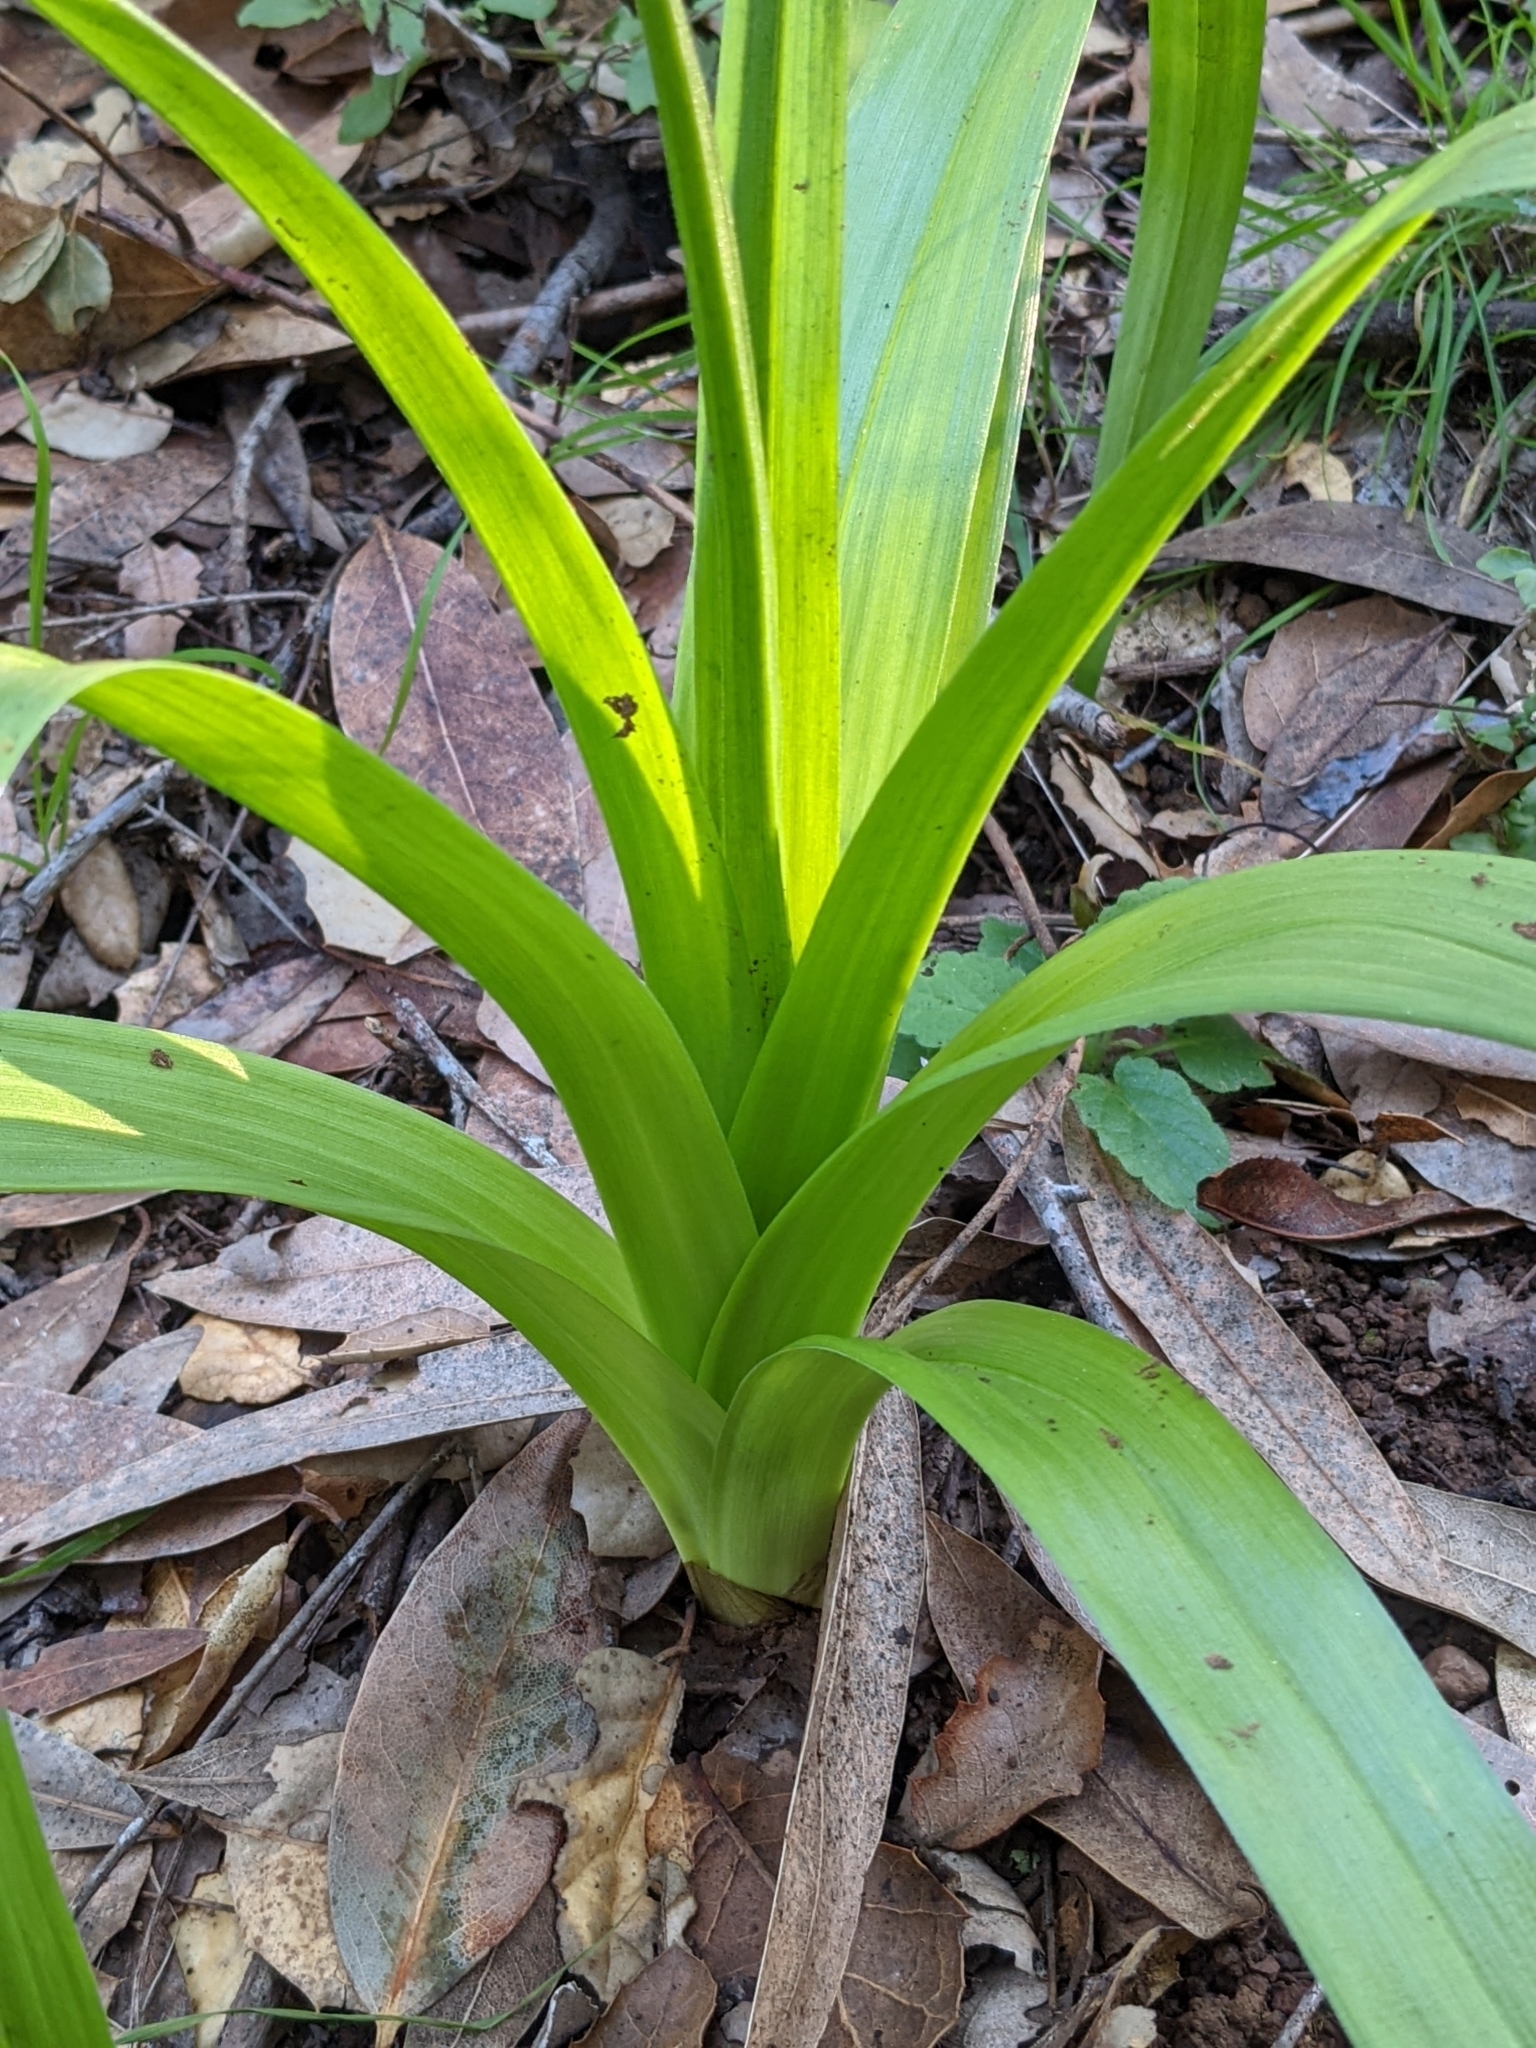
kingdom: Plantae
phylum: Tracheophyta
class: Liliopsida
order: Liliales
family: Melanthiaceae
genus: Toxicoscordion
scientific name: Toxicoscordion fremontii
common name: Fremont's death camas
